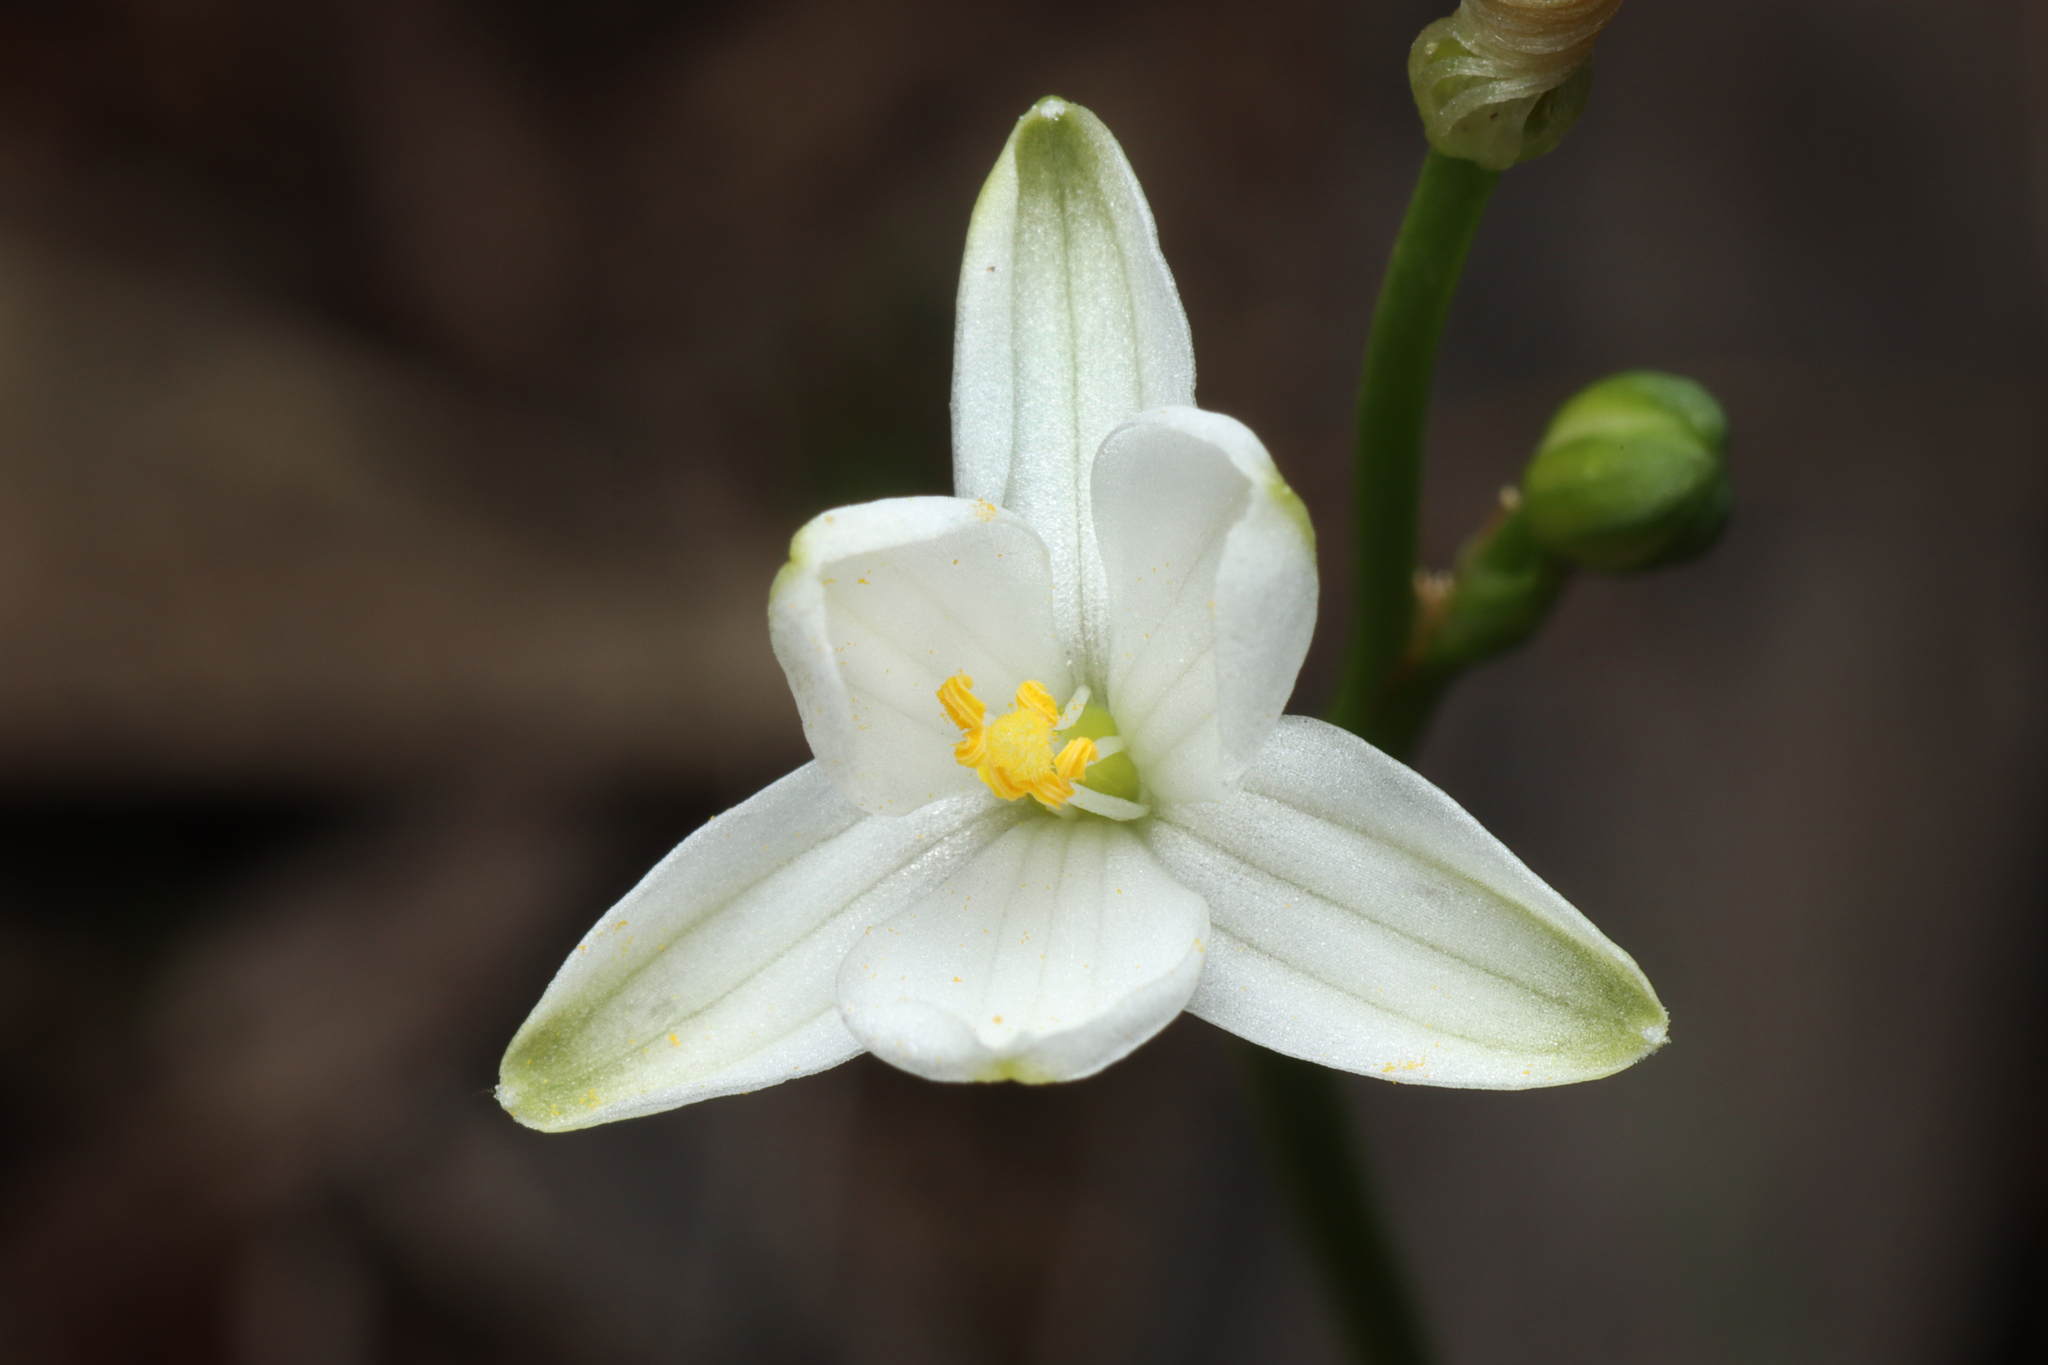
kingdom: Plantae
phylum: Tracheophyta
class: Liliopsida
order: Asparagales
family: Asphodelaceae
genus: Chamaescilla
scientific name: Chamaescilla corymbosa
